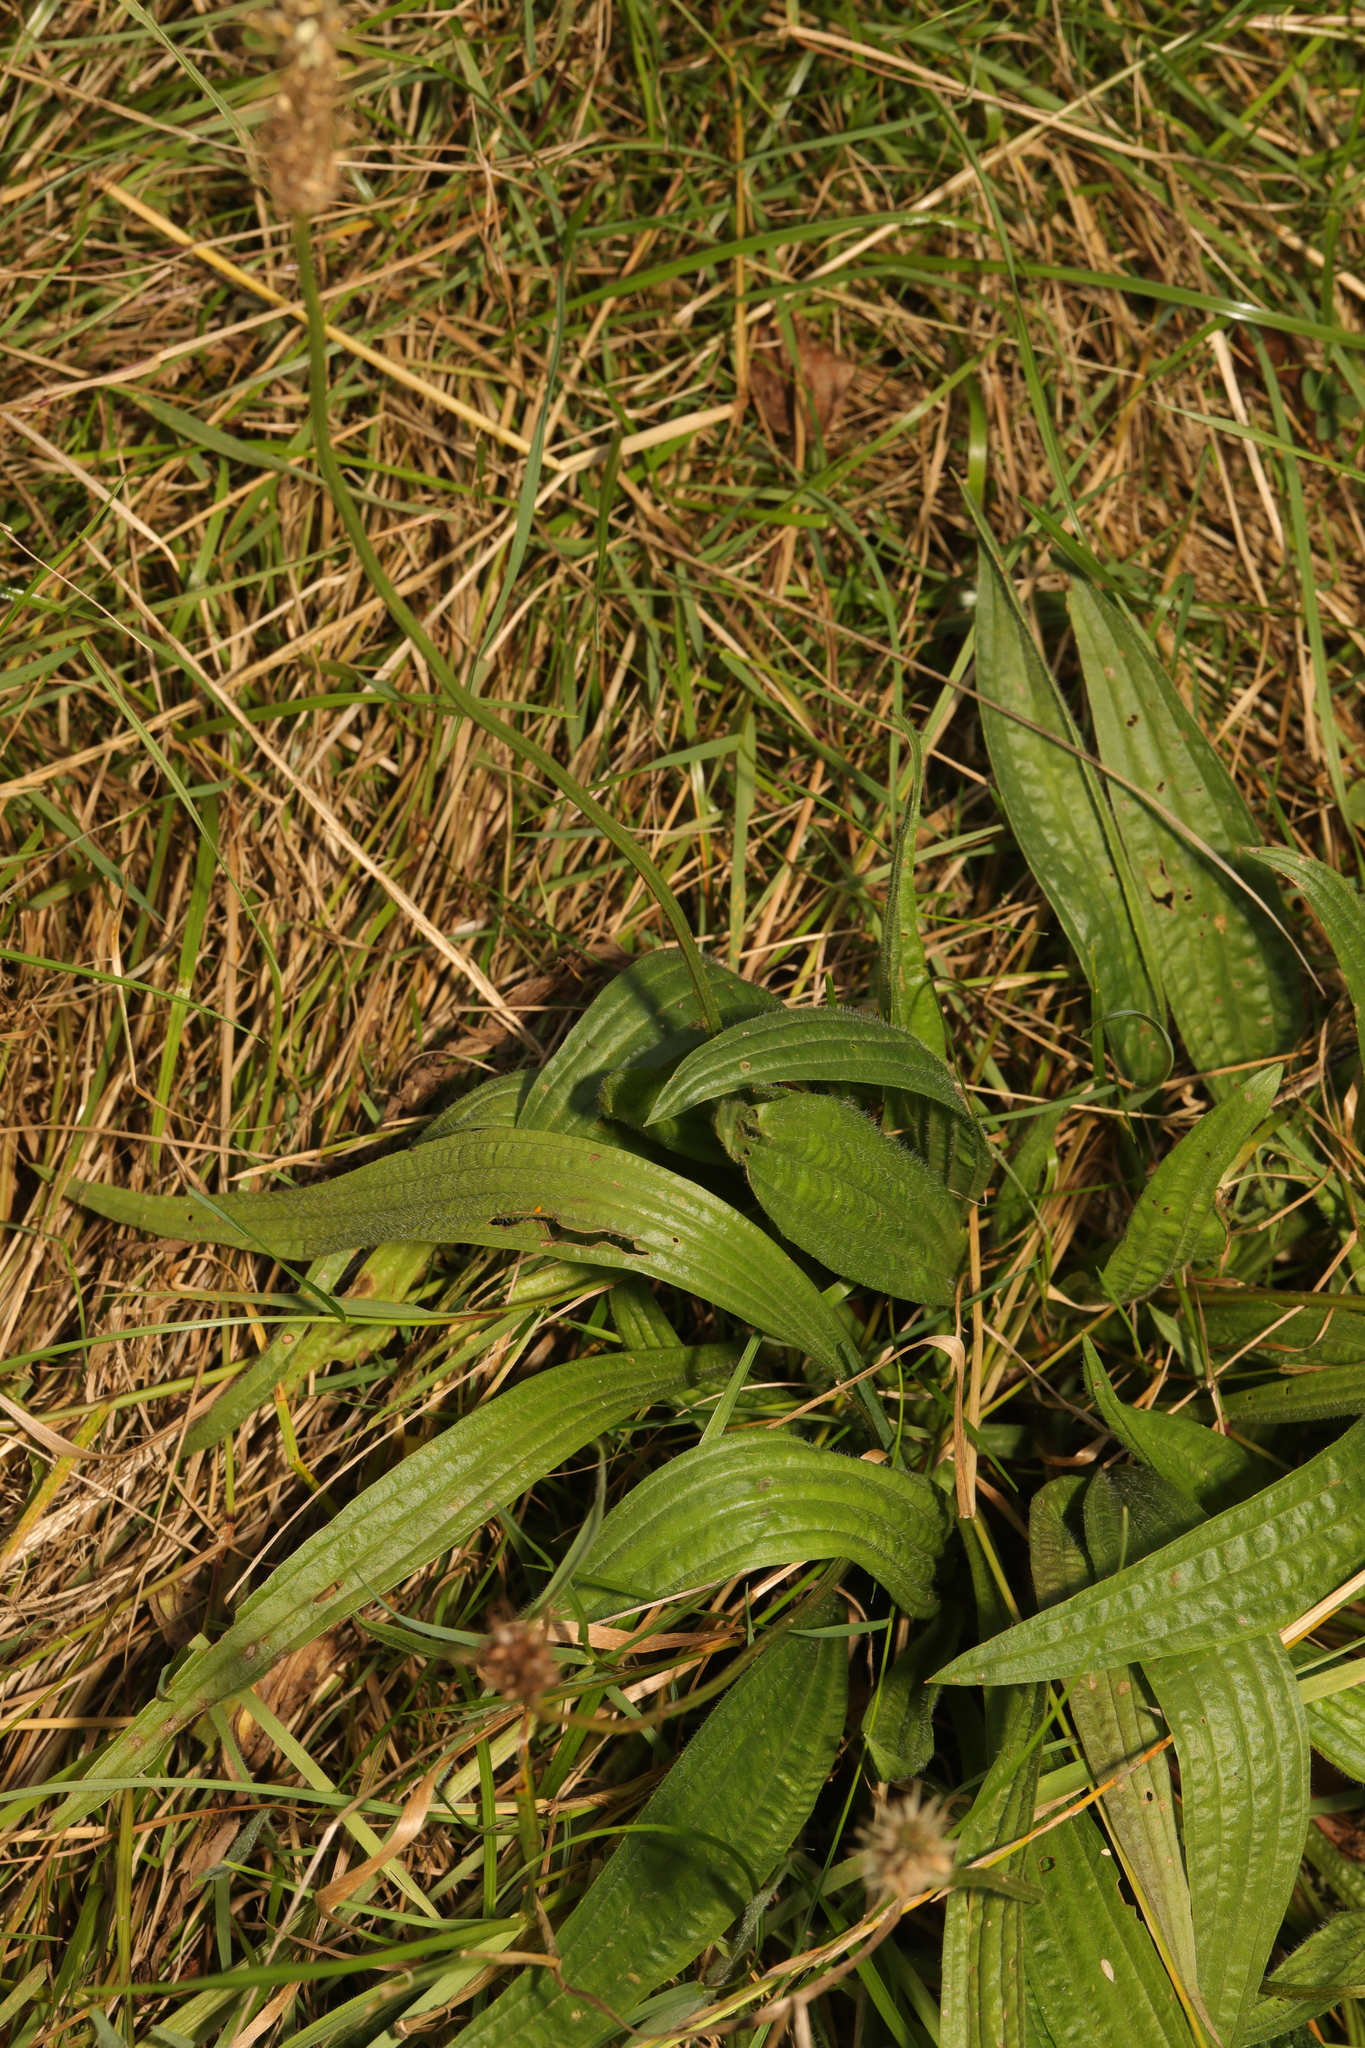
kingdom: Plantae
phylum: Tracheophyta
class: Magnoliopsida
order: Lamiales
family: Plantaginaceae
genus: Plantago
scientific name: Plantago lanceolata
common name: Ribwort plantain
